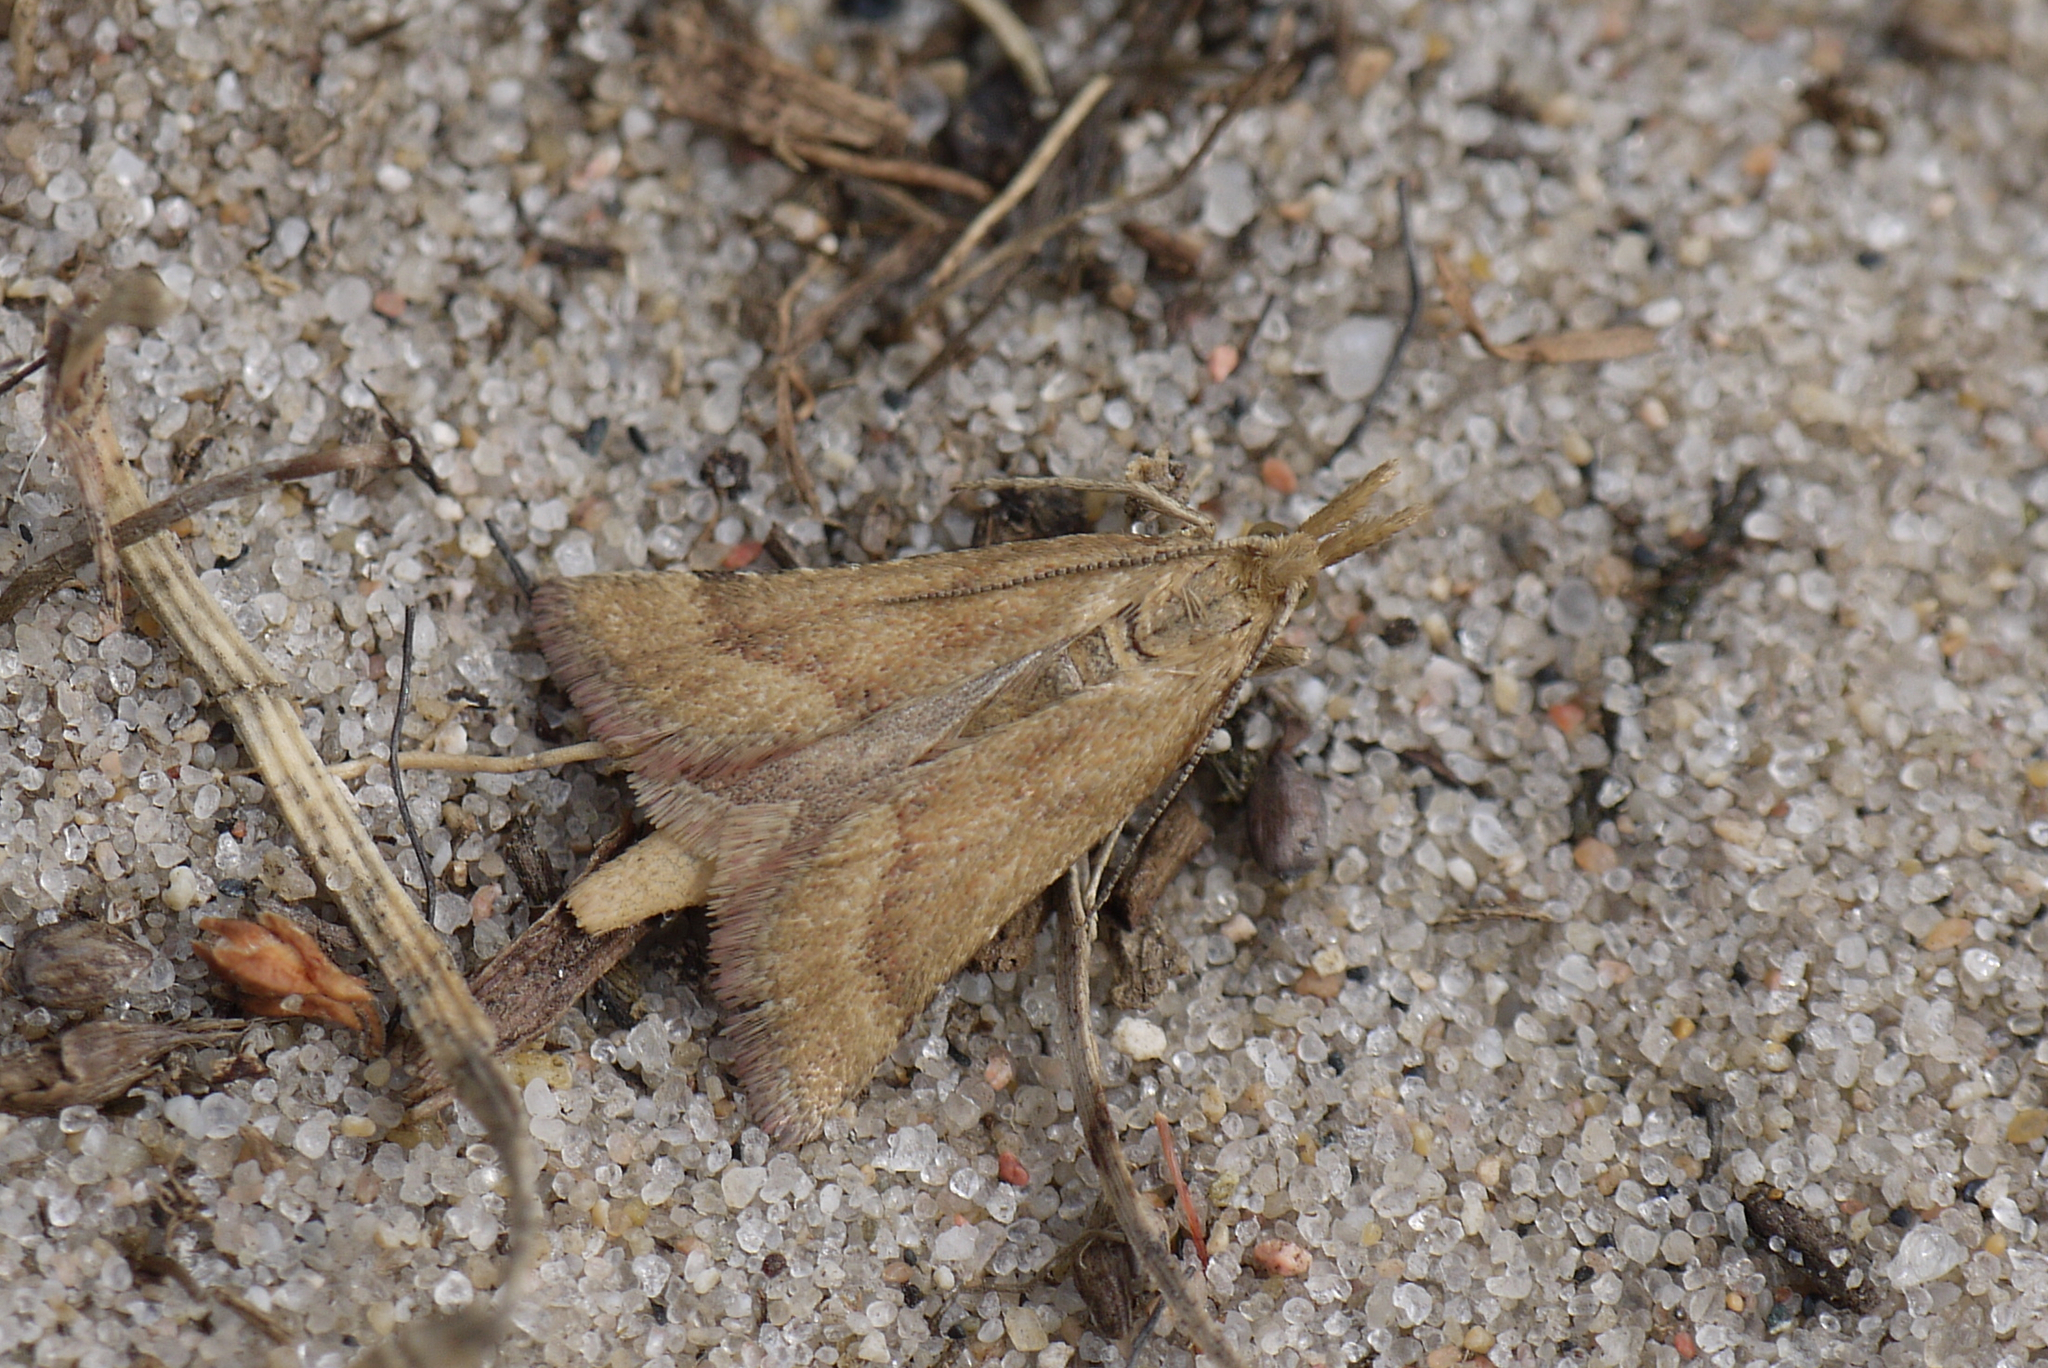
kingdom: Animalia
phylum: Arthropoda
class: Insecta
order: Lepidoptera
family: Pyralidae
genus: Synaphe
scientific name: Synaphe punctalis
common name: Long-legged tabby
